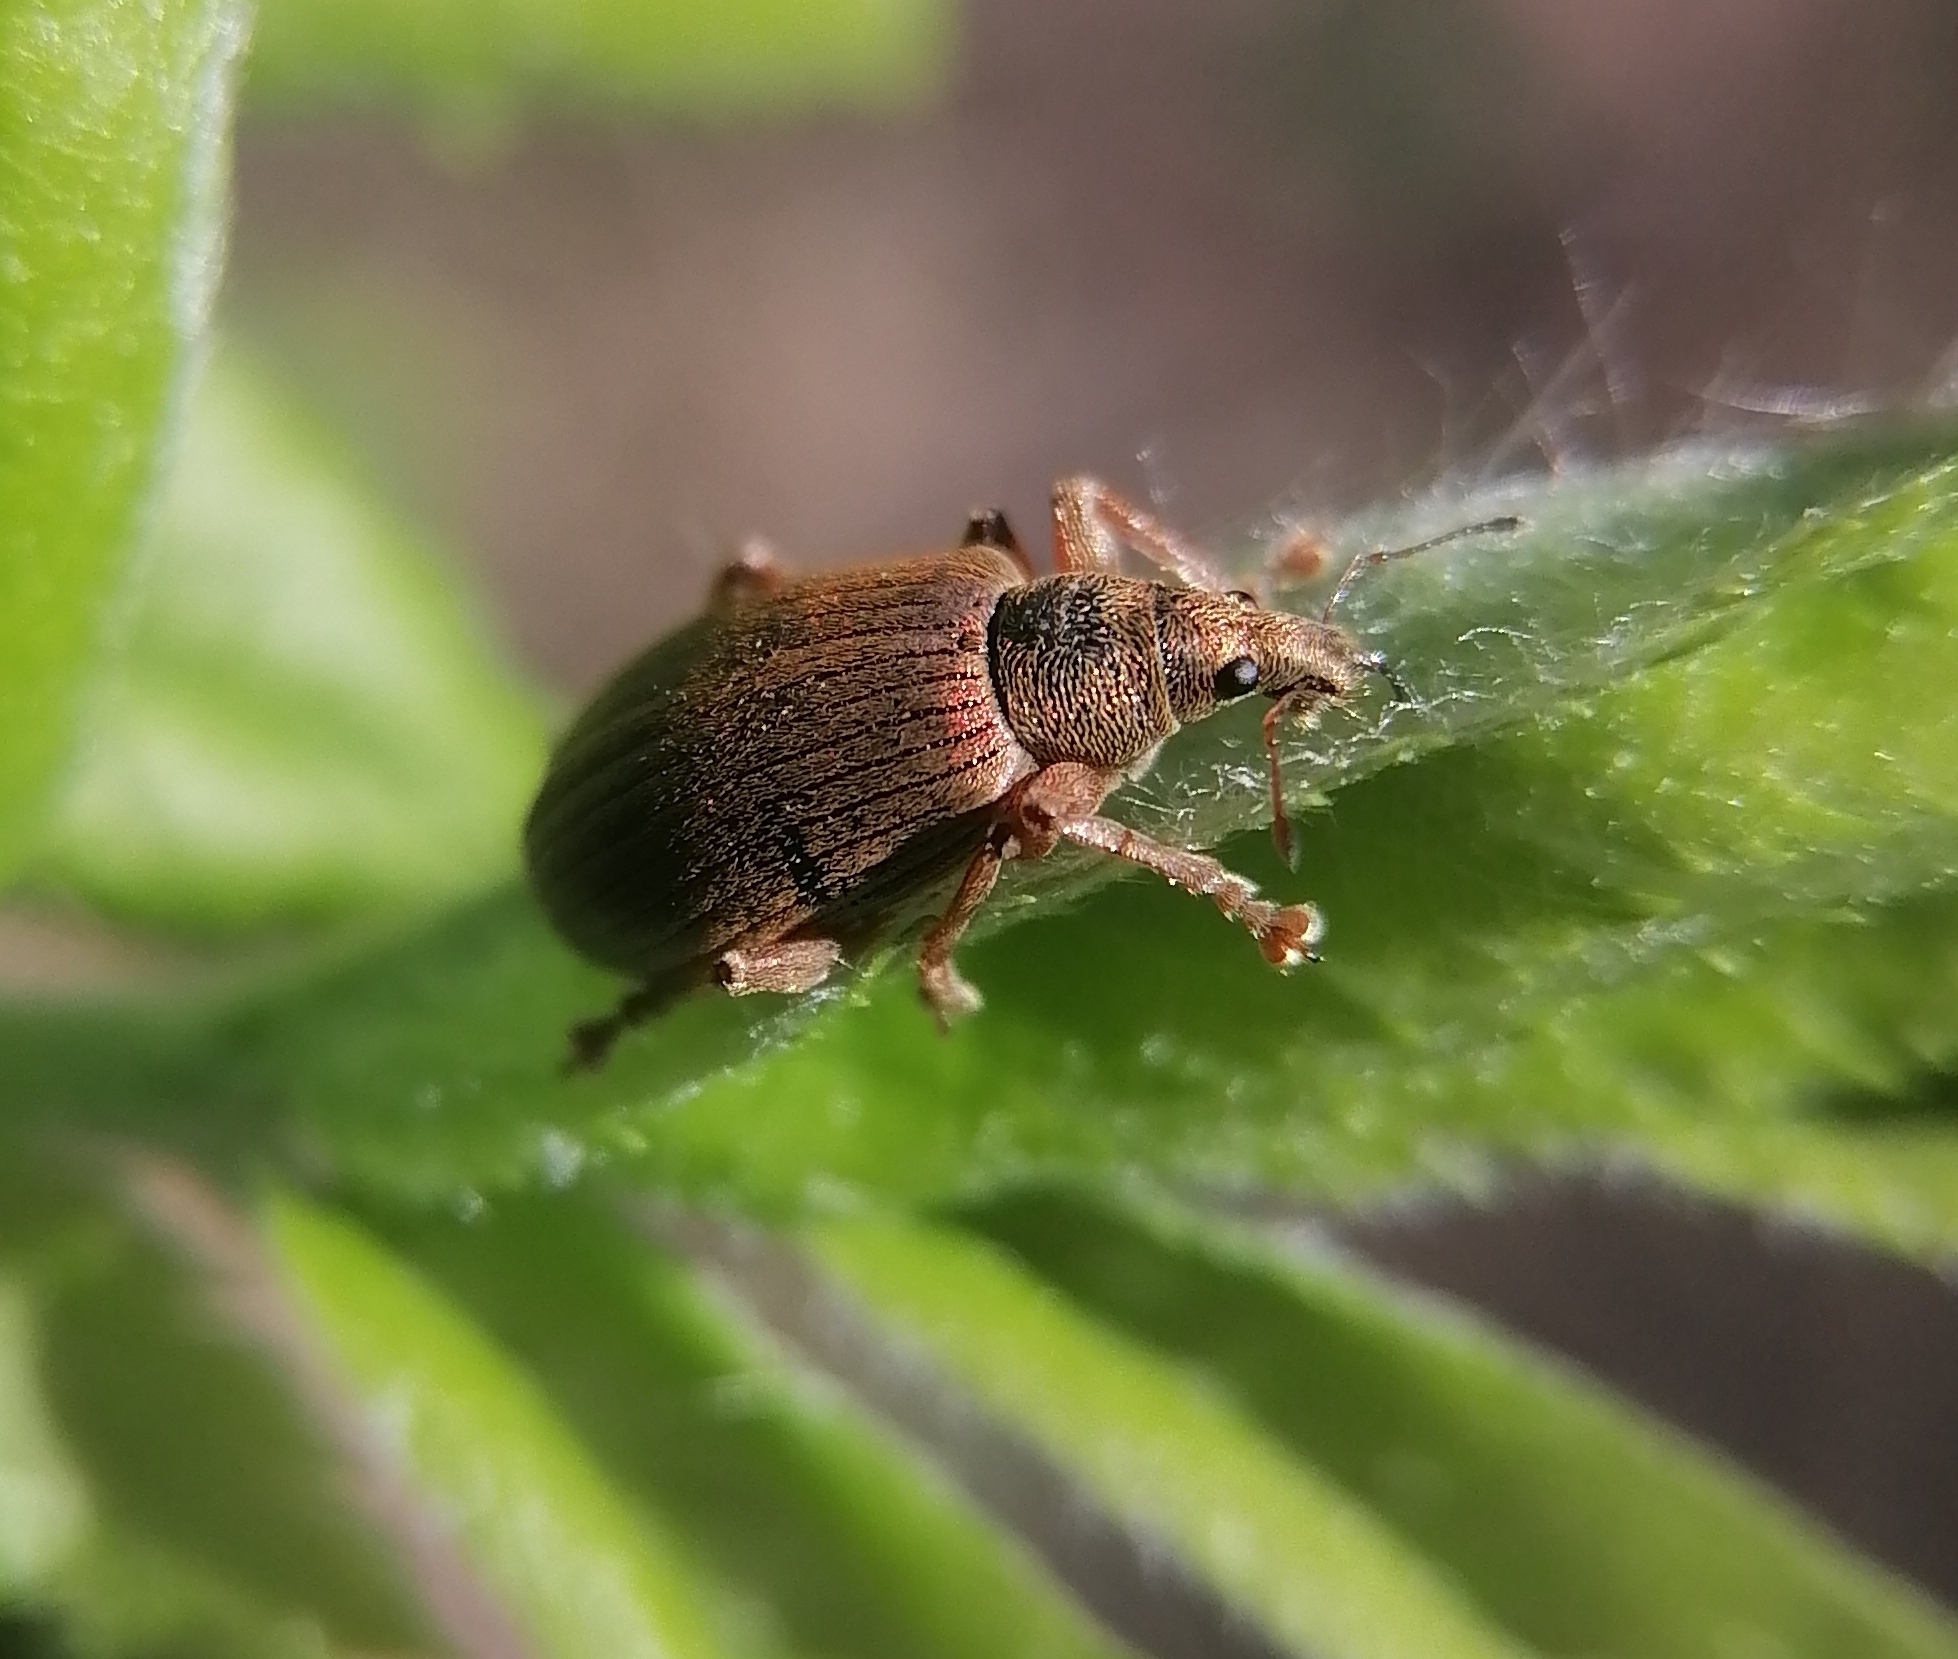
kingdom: Animalia
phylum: Arthropoda
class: Insecta
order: Coleoptera
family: Curculionidae
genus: Polydrusus
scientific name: Polydrusus mollis
